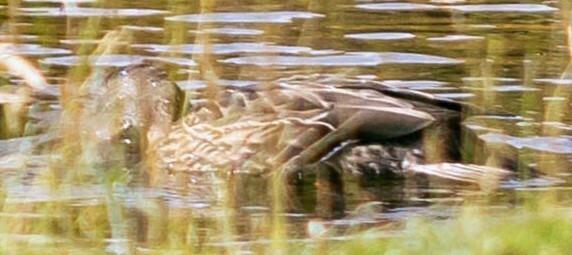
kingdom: Animalia
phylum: Chordata
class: Aves
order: Anseriformes
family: Anatidae
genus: Anas
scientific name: Anas platyrhynchos
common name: Mallard
